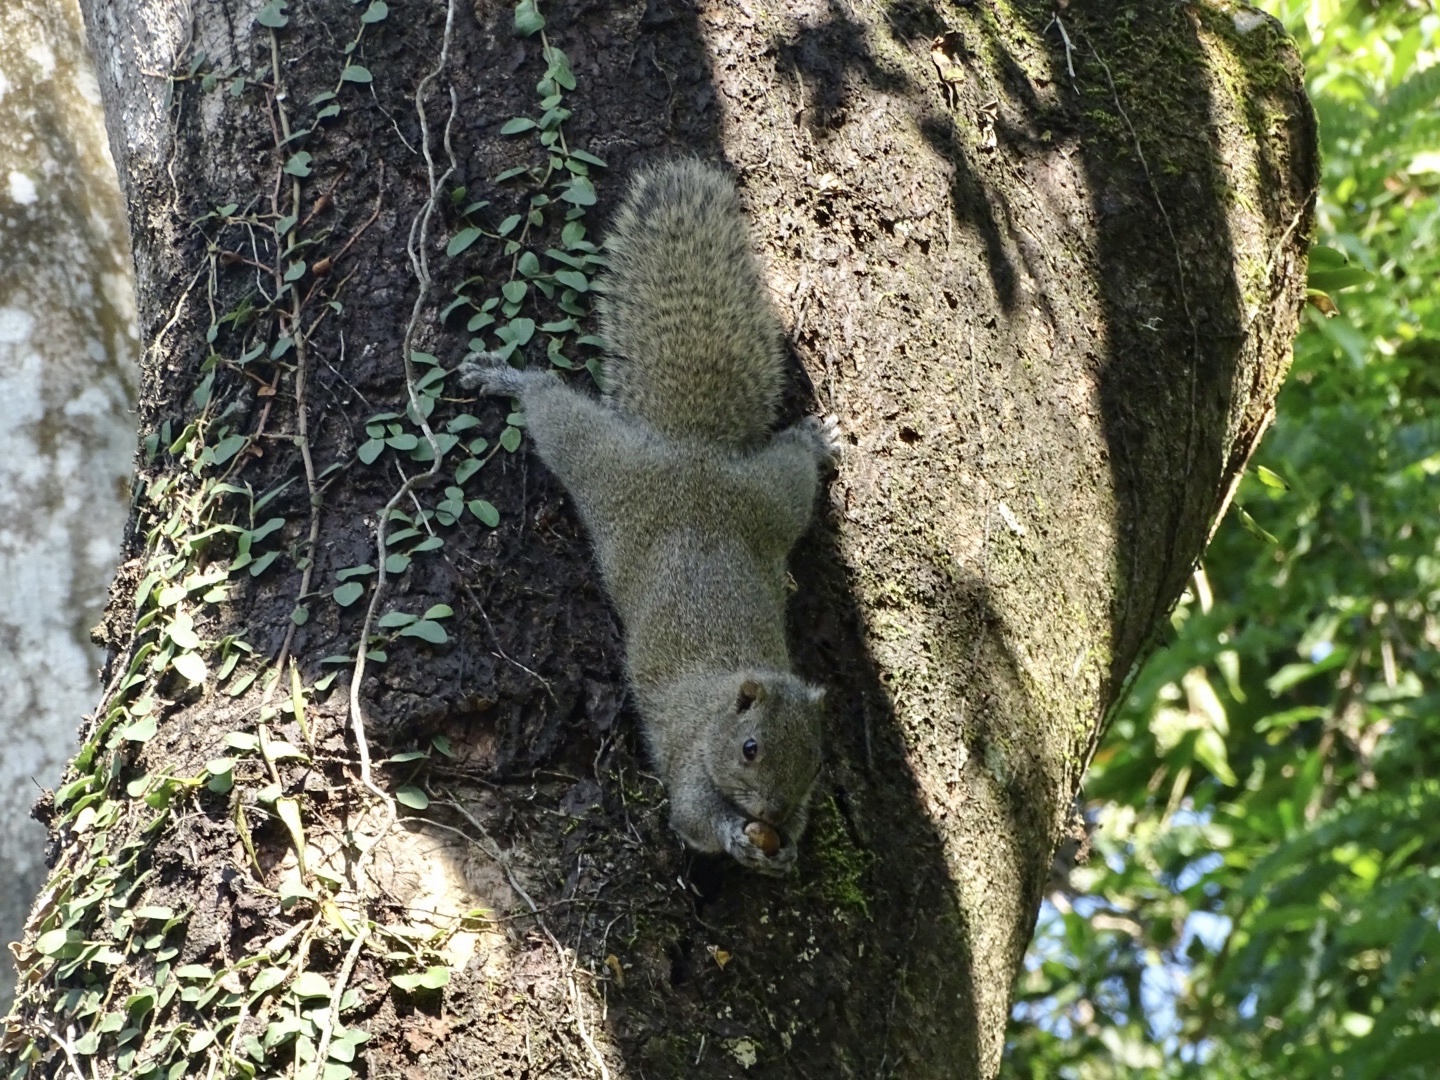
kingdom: Animalia
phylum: Chordata
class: Mammalia
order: Rodentia
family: Sciuridae
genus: Callosciurus
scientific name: Callosciurus erythraeus
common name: Pallas's squirrel
